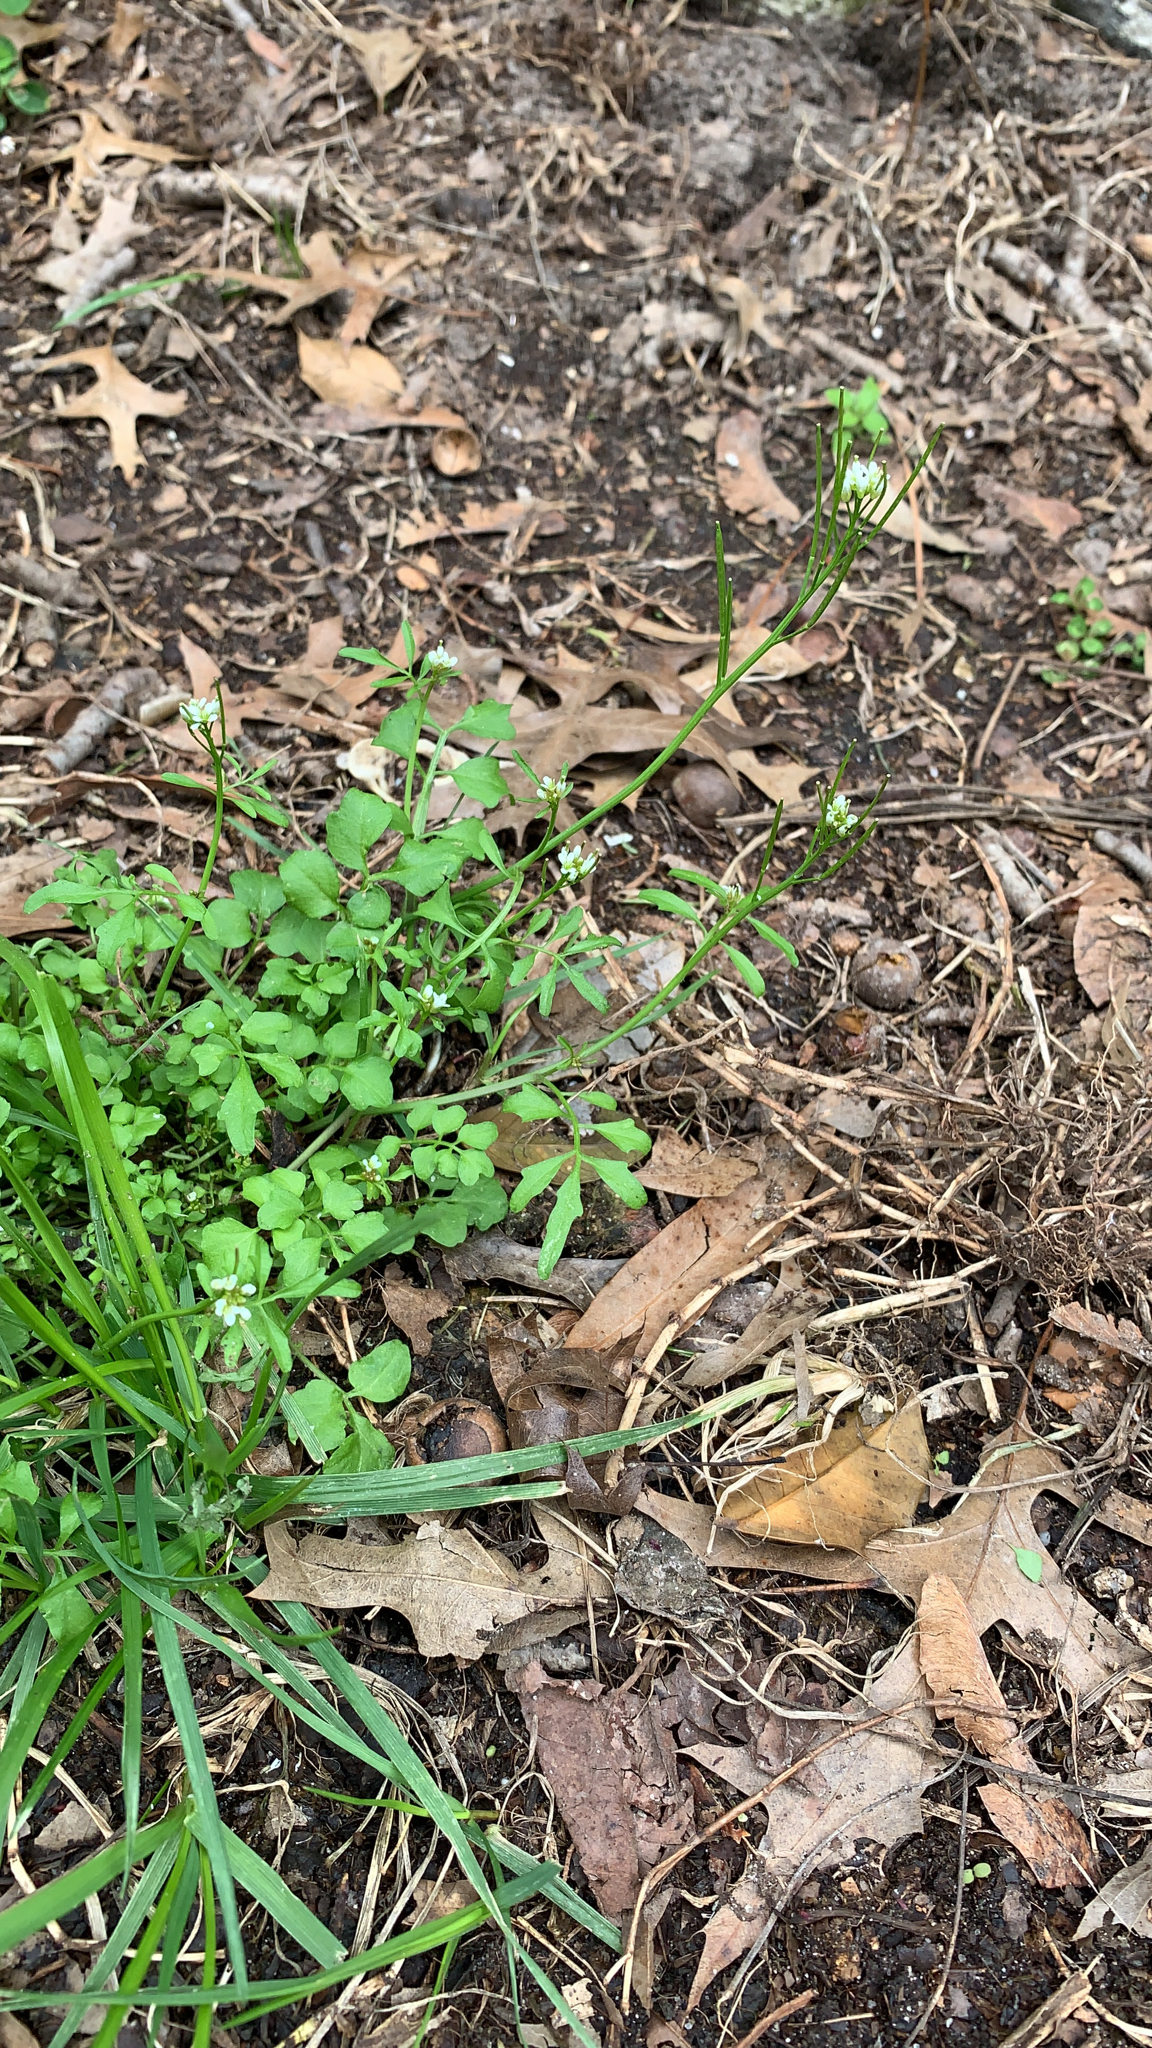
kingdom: Plantae
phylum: Tracheophyta
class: Magnoliopsida
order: Brassicales
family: Brassicaceae
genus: Cardamine
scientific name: Cardamine hirsuta
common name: Hairy bittercress
